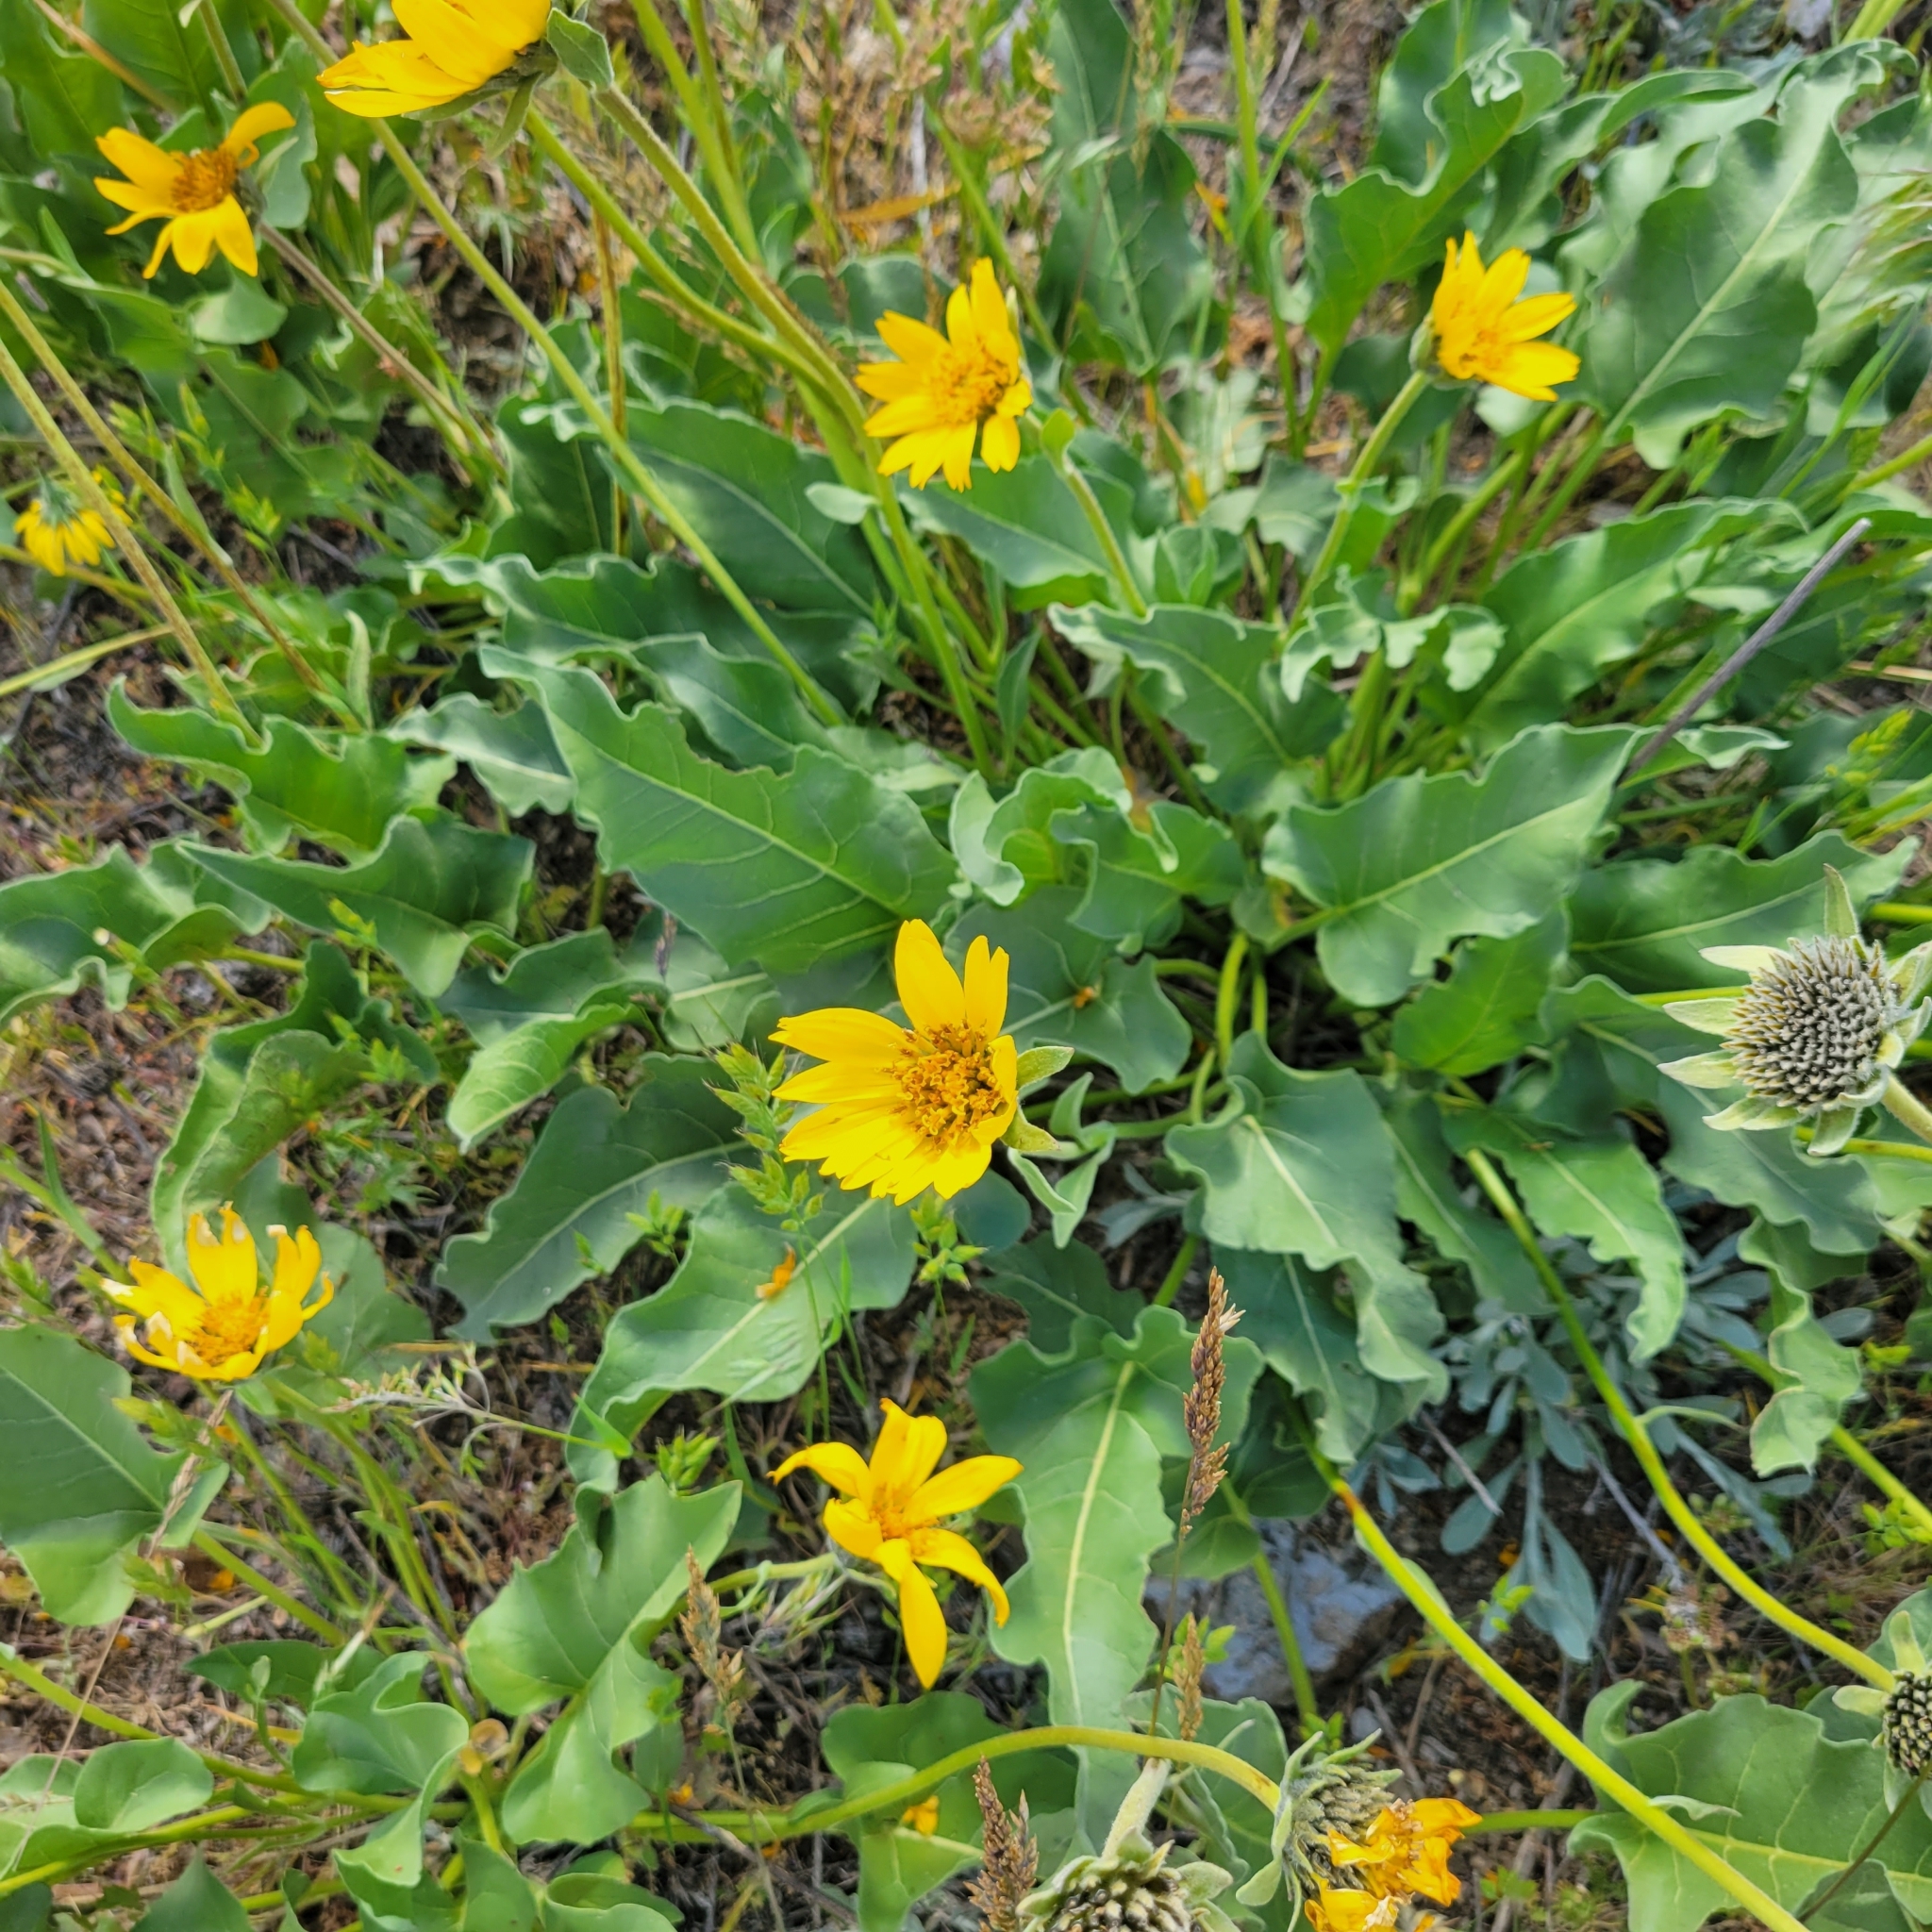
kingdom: Plantae
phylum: Tracheophyta
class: Magnoliopsida
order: Asterales
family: Asteraceae
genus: Balsamorhiza
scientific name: Balsamorhiza deltoidea
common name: Deltoid balsamroot
